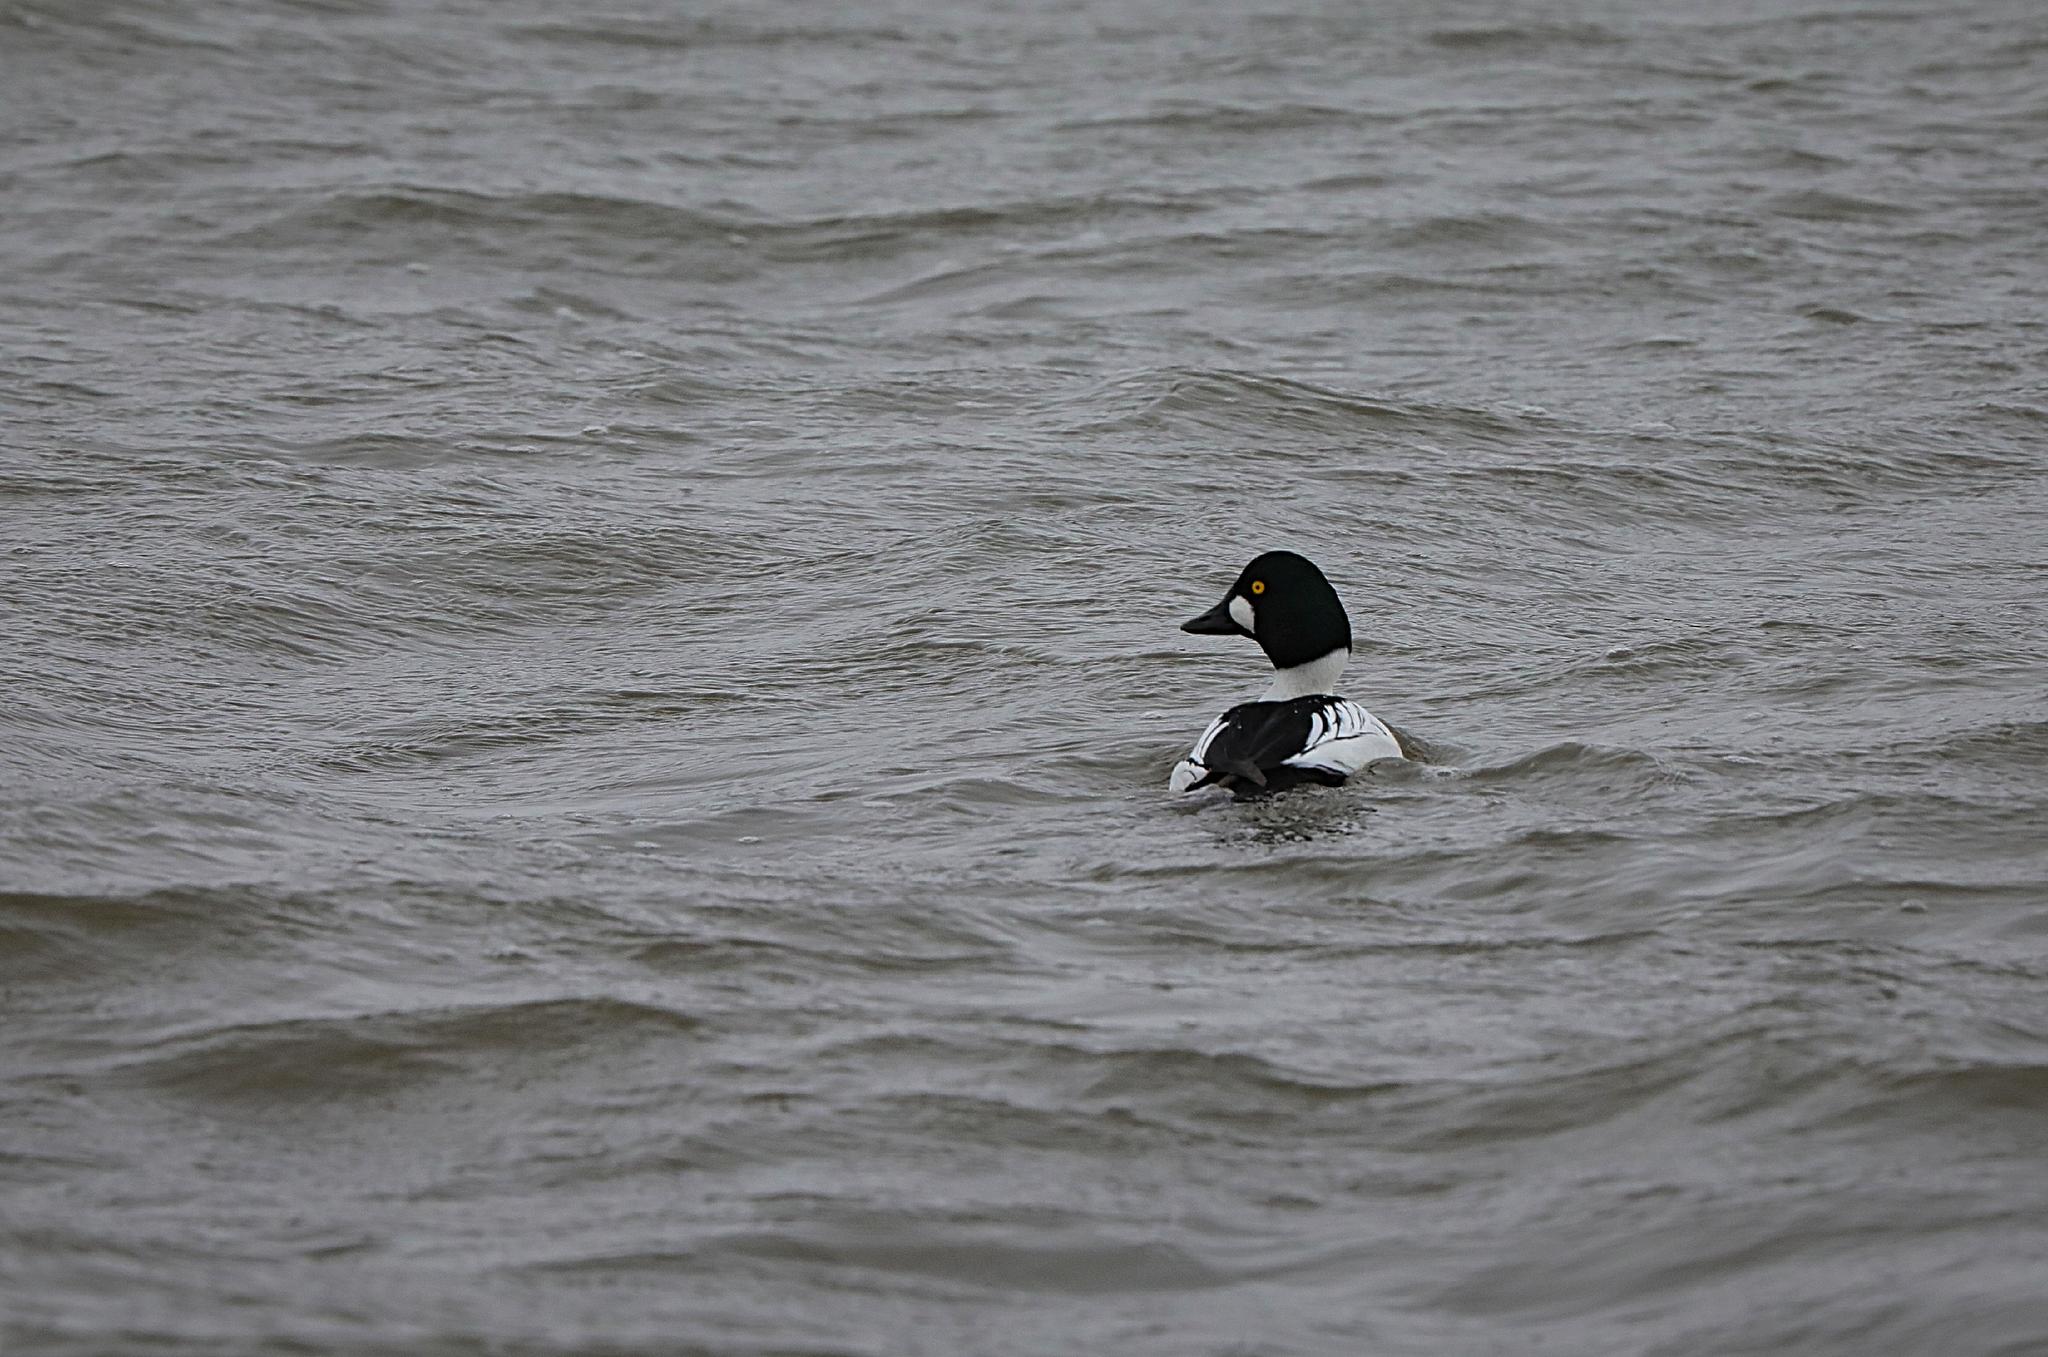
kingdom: Animalia
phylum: Chordata
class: Aves
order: Anseriformes
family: Anatidae
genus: Bucephala
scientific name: Bucephala clangula
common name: Common goldeneye
